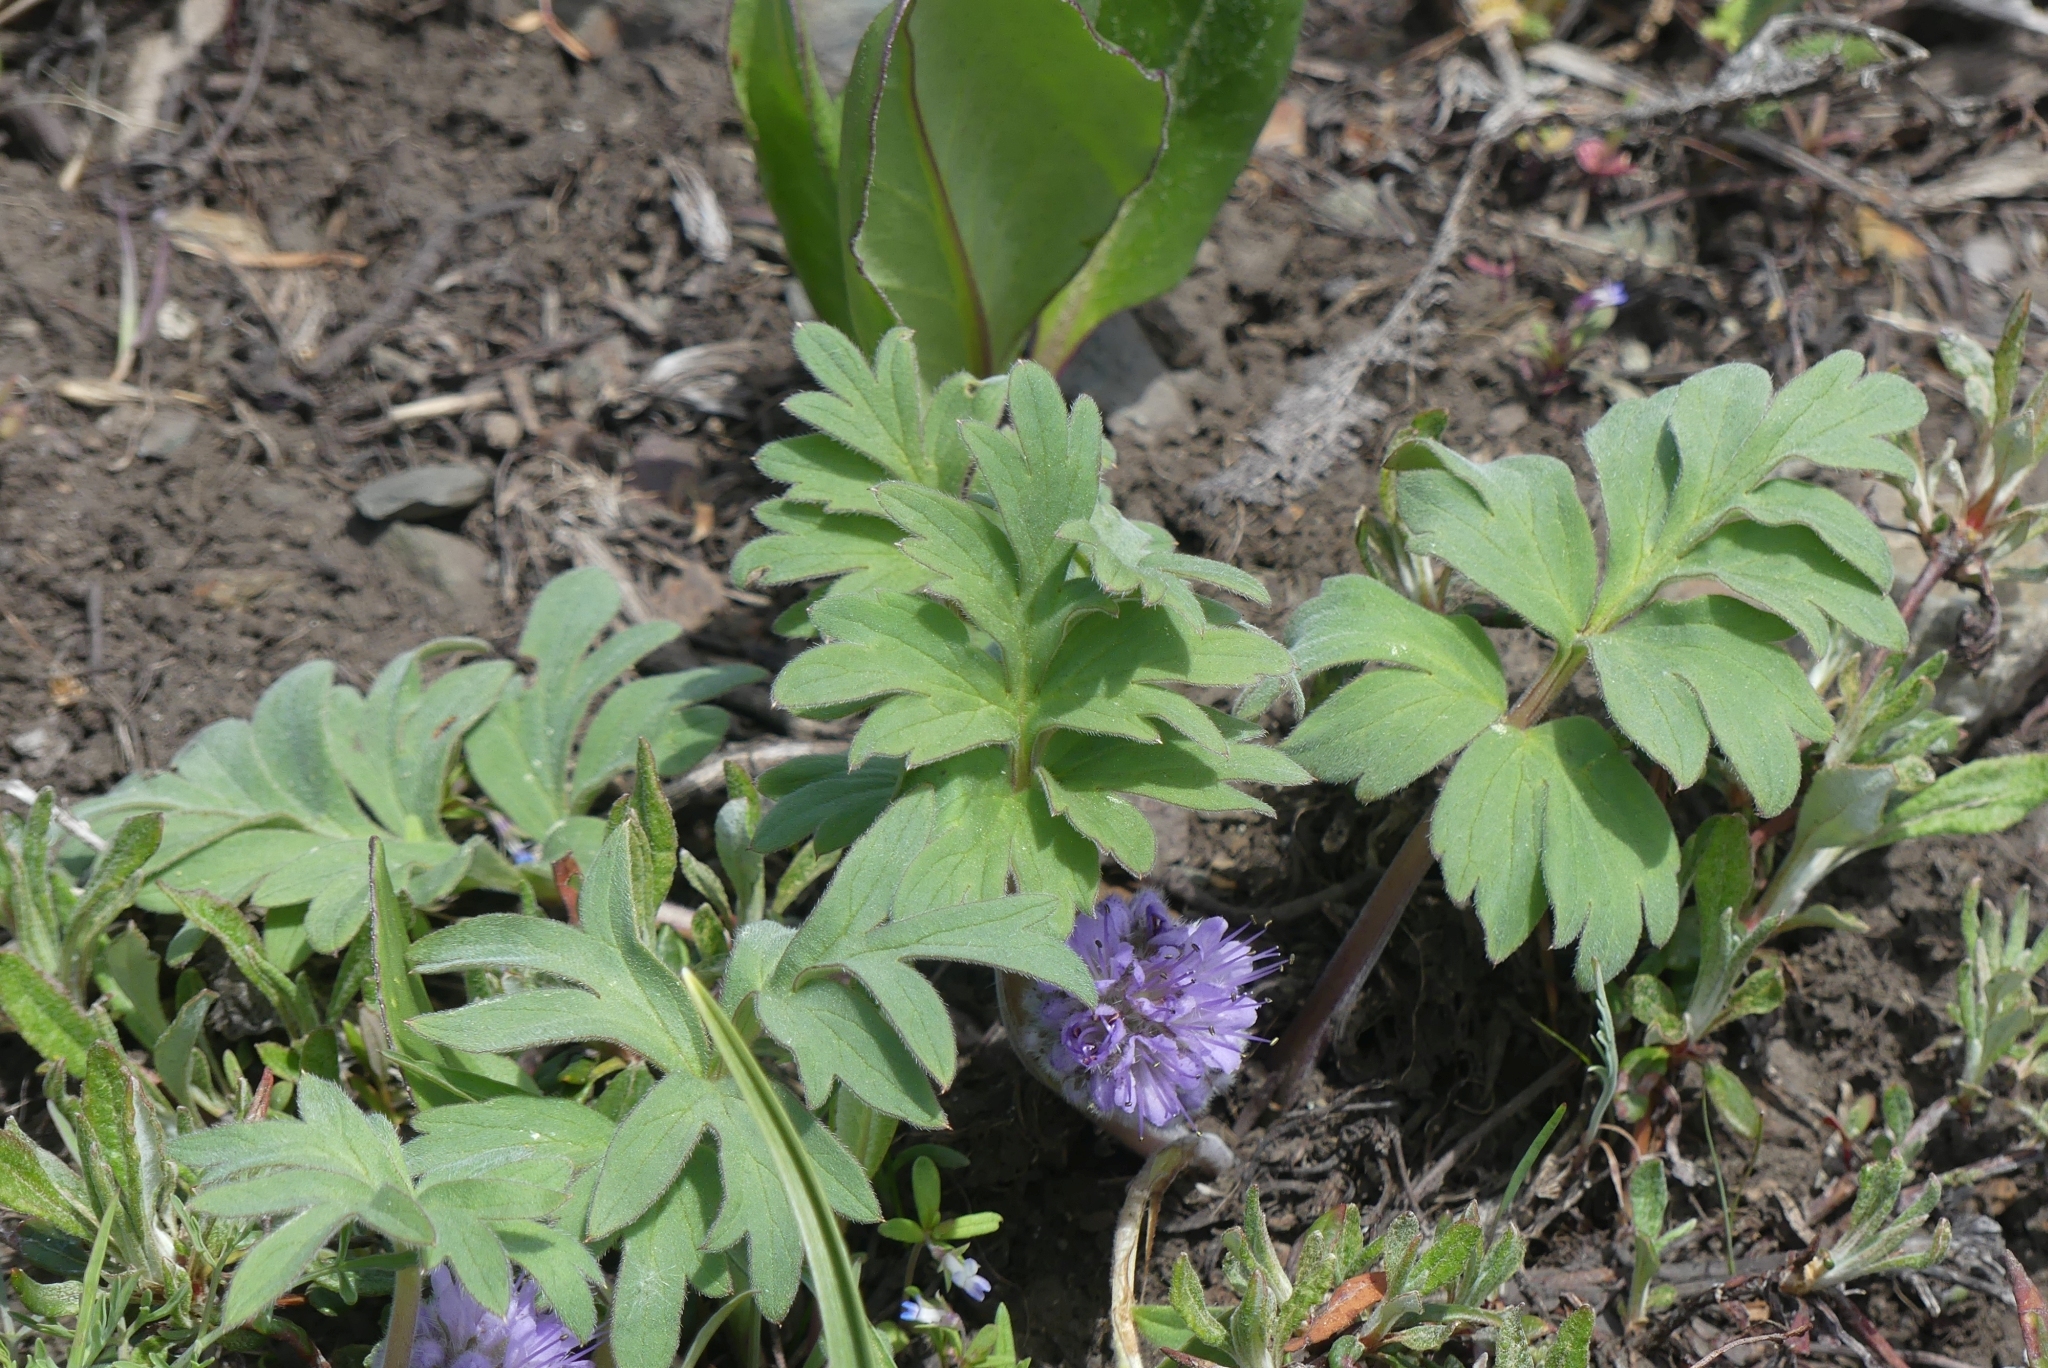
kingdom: Plantae
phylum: Tracheophyta
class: Magnoliopsida
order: Boraginales
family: Hydrophyllaceae
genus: Hydrophyllum
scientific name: Hydrophyllum capitatum
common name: Woollen-breeches
